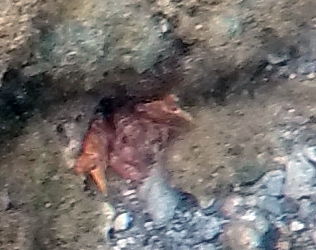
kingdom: Animalia
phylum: Arthropoda
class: Malacostraca
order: Decapoda
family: Callichiridae
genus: Corallianassa
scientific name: Corallianassa borradailei
